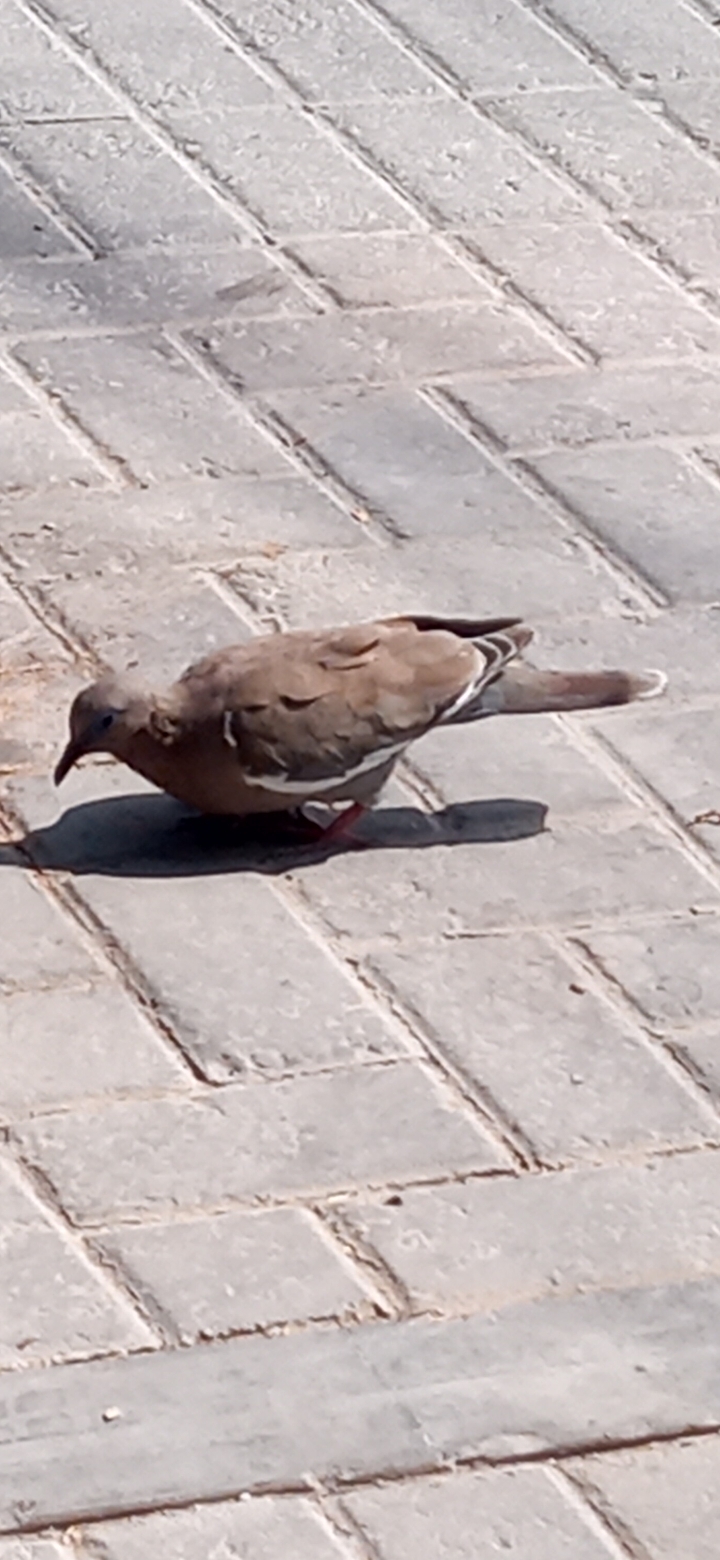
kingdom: Animalia
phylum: Chordata
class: Aves
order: Columbiformes
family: Columbidae
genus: Zenaida
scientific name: Zenaida meloda
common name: West peruvian dove
